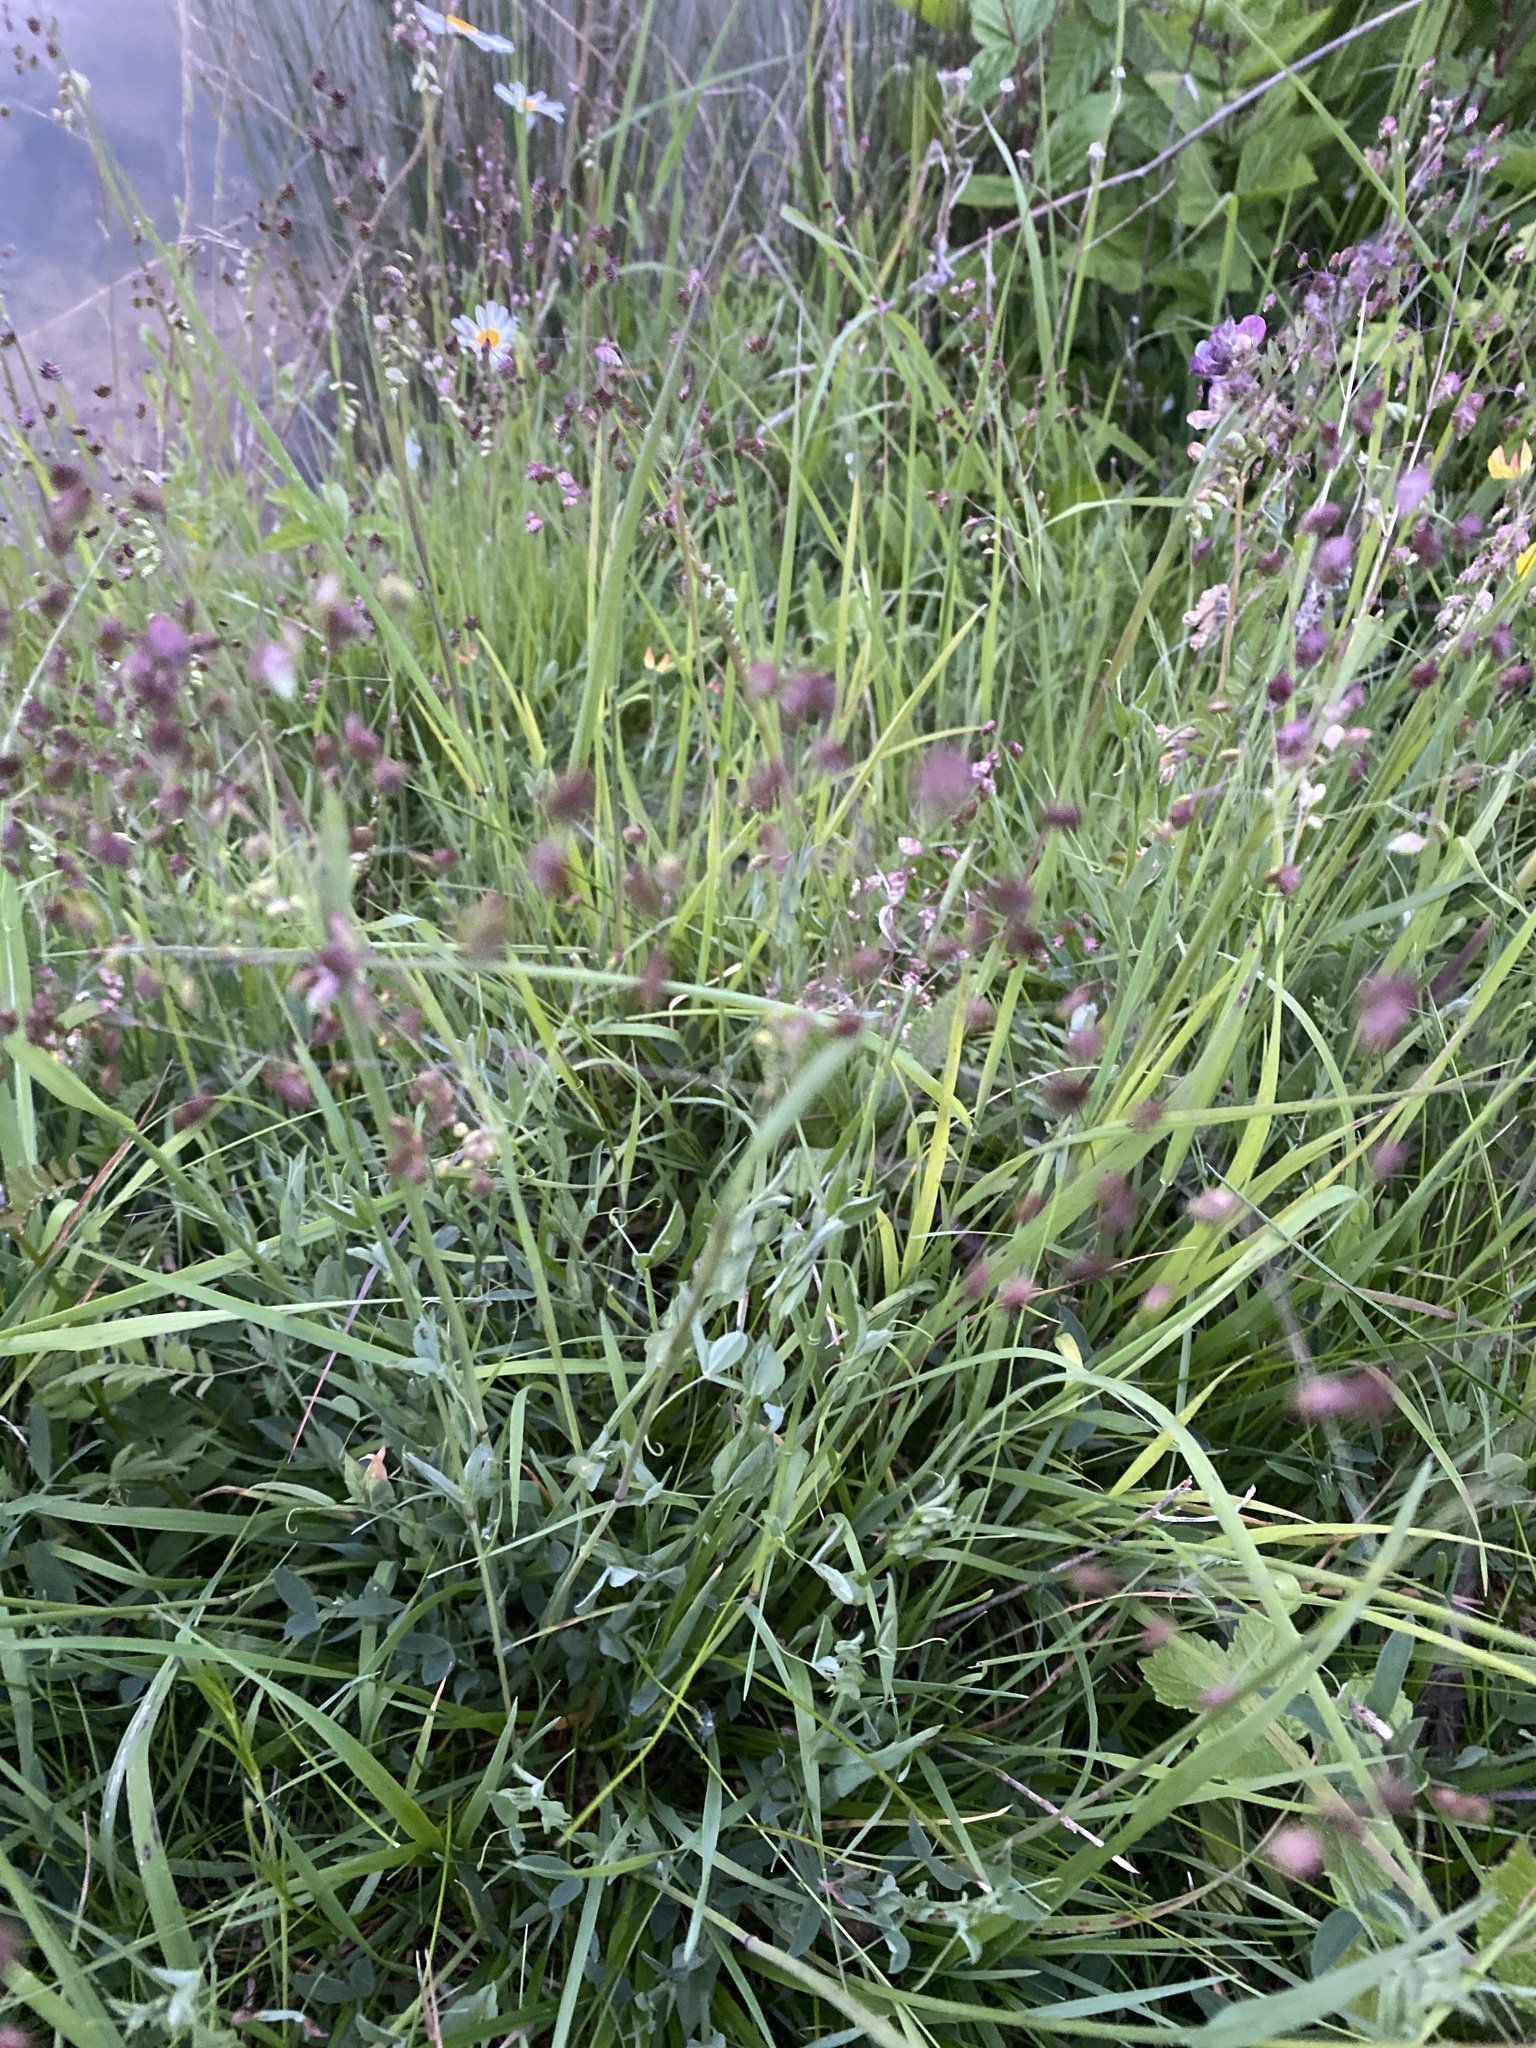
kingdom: Plantae
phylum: Tracheophyta
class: Liliopsida
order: Poales
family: Poaceae
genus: Briza
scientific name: Briza media
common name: Quaking grass
